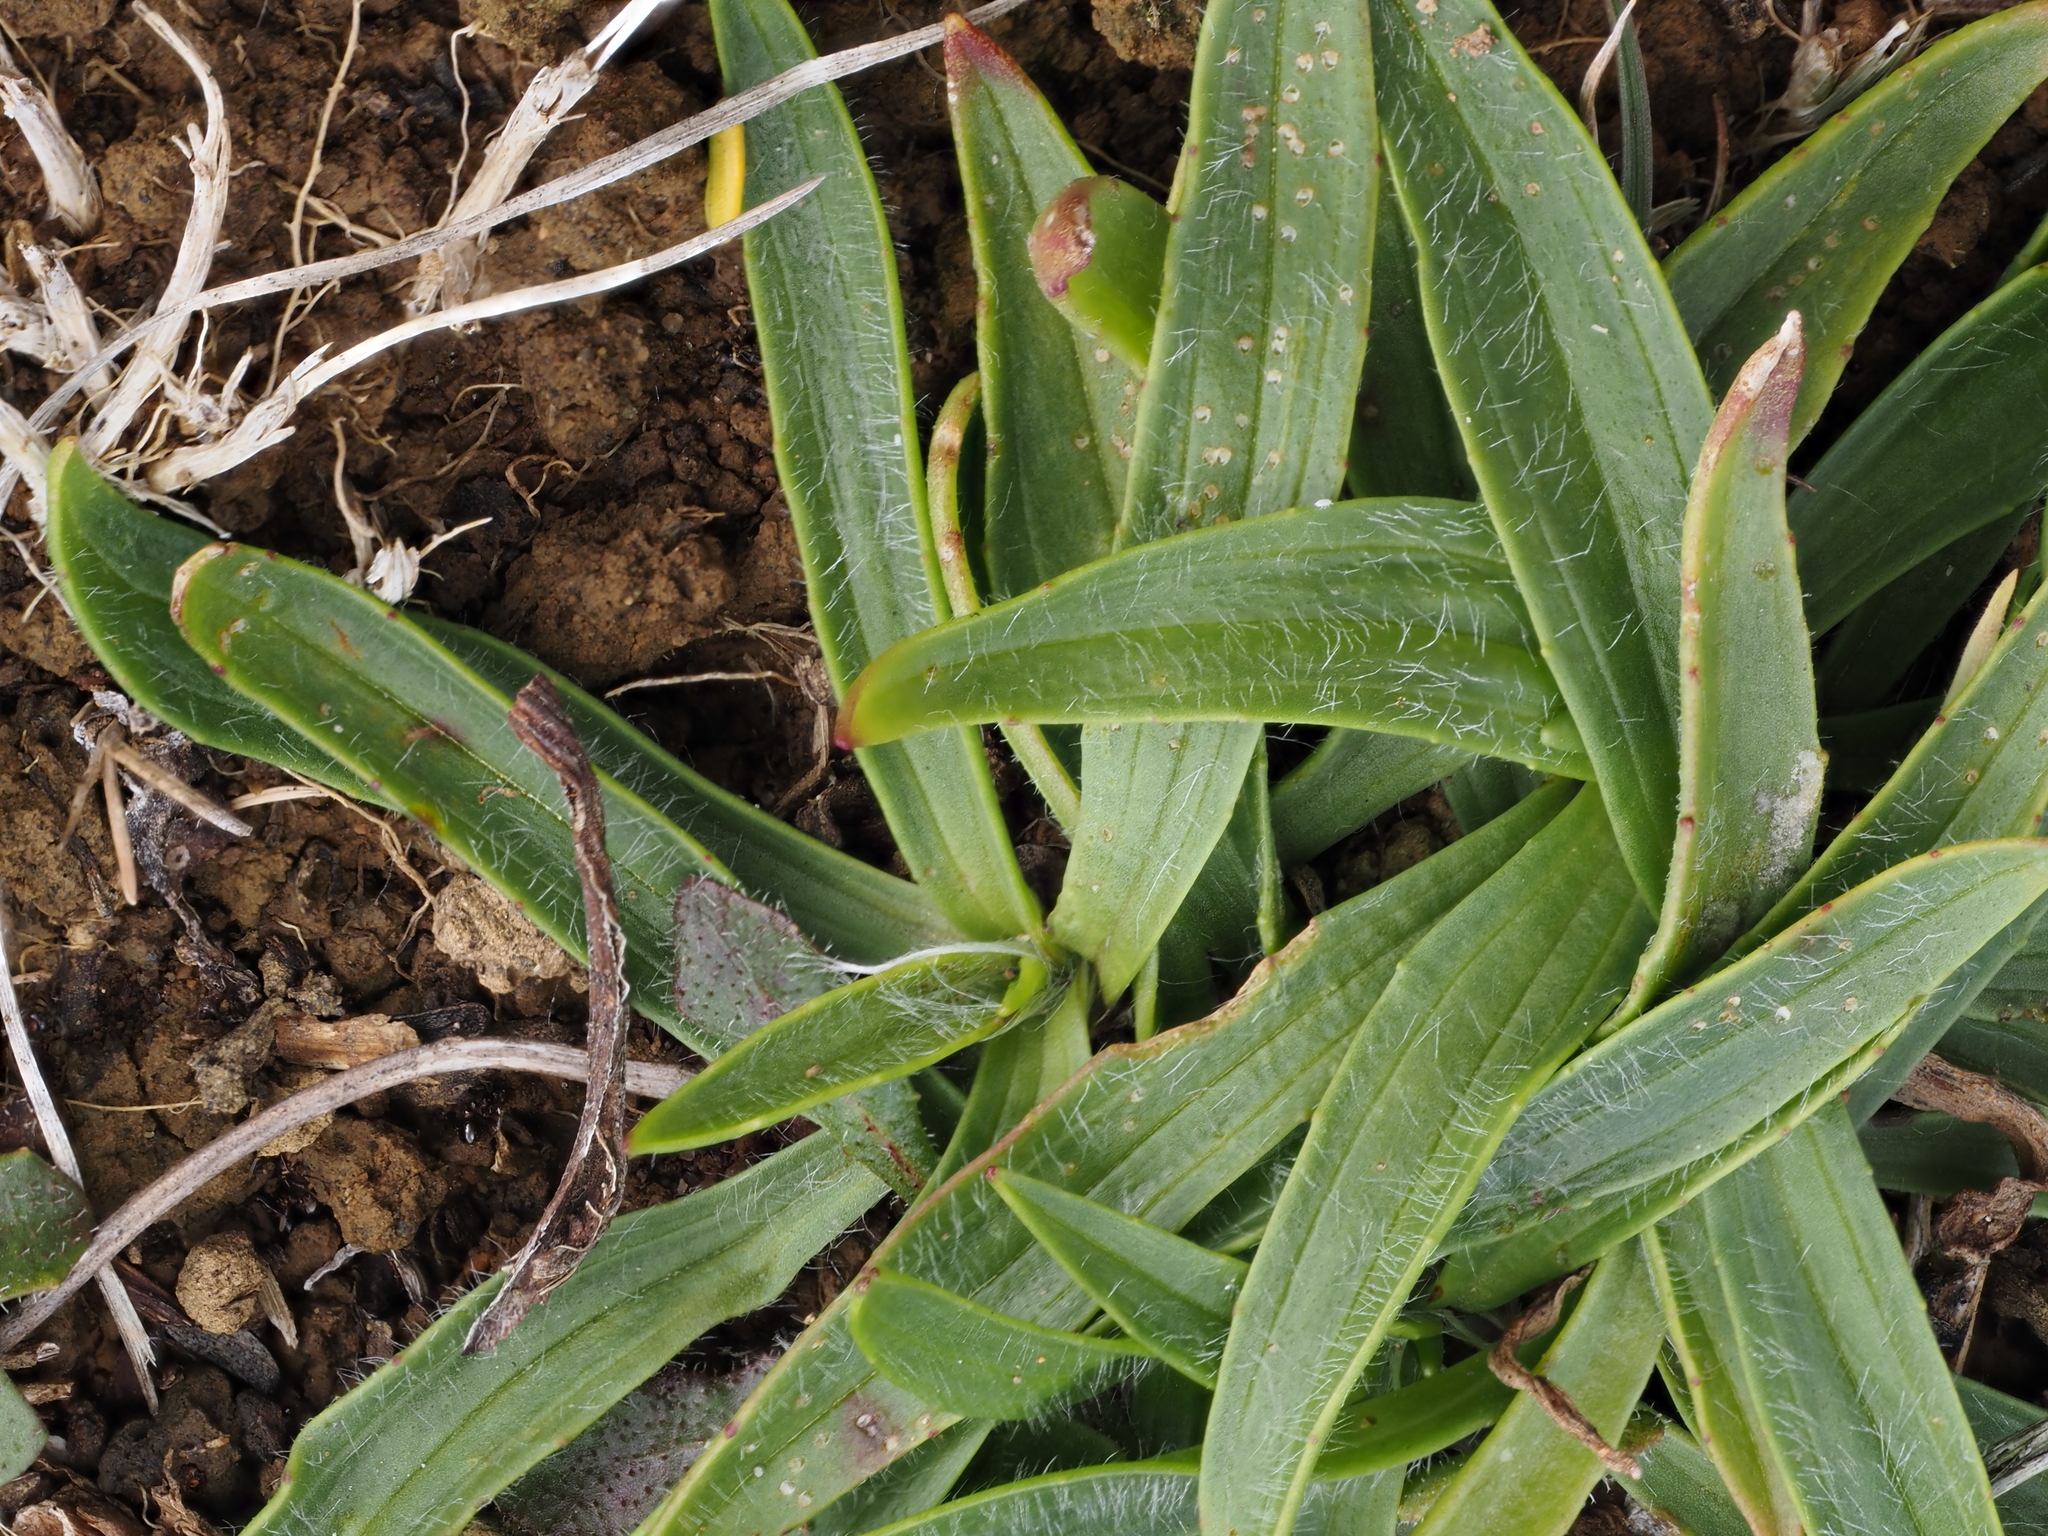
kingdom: Plantae
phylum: Tracheophyta
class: Magnoliopsida
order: Lamiales
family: Plantaginaceae
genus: Plantago
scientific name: Plantago lanceolata
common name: Ribwort plantain
